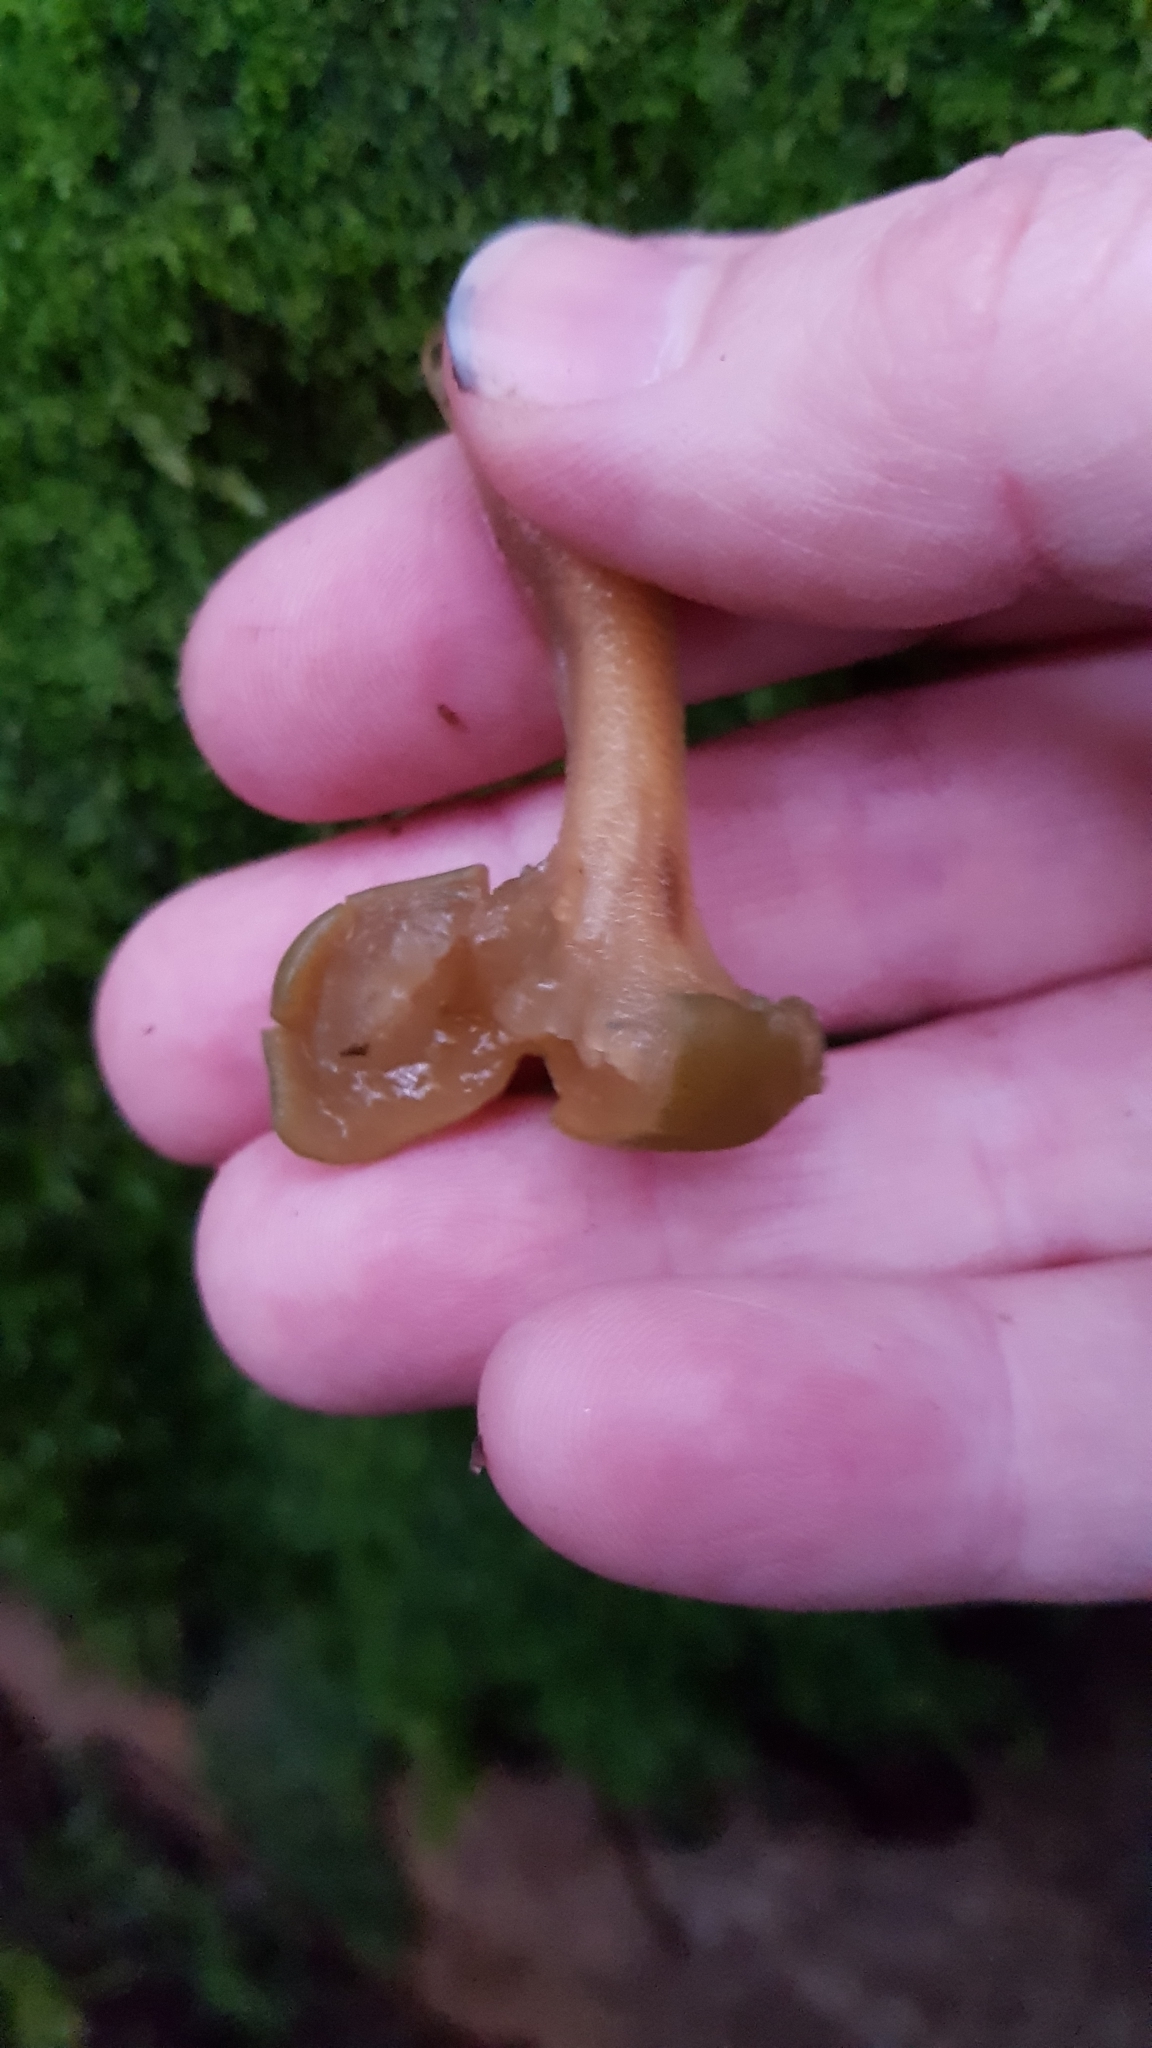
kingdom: Fungi
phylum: Ascomycota
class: Leotiomycetes
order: Leotiales
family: Leotiaceae
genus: Leotia
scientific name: Leotia lubrica
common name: Jellybaby
